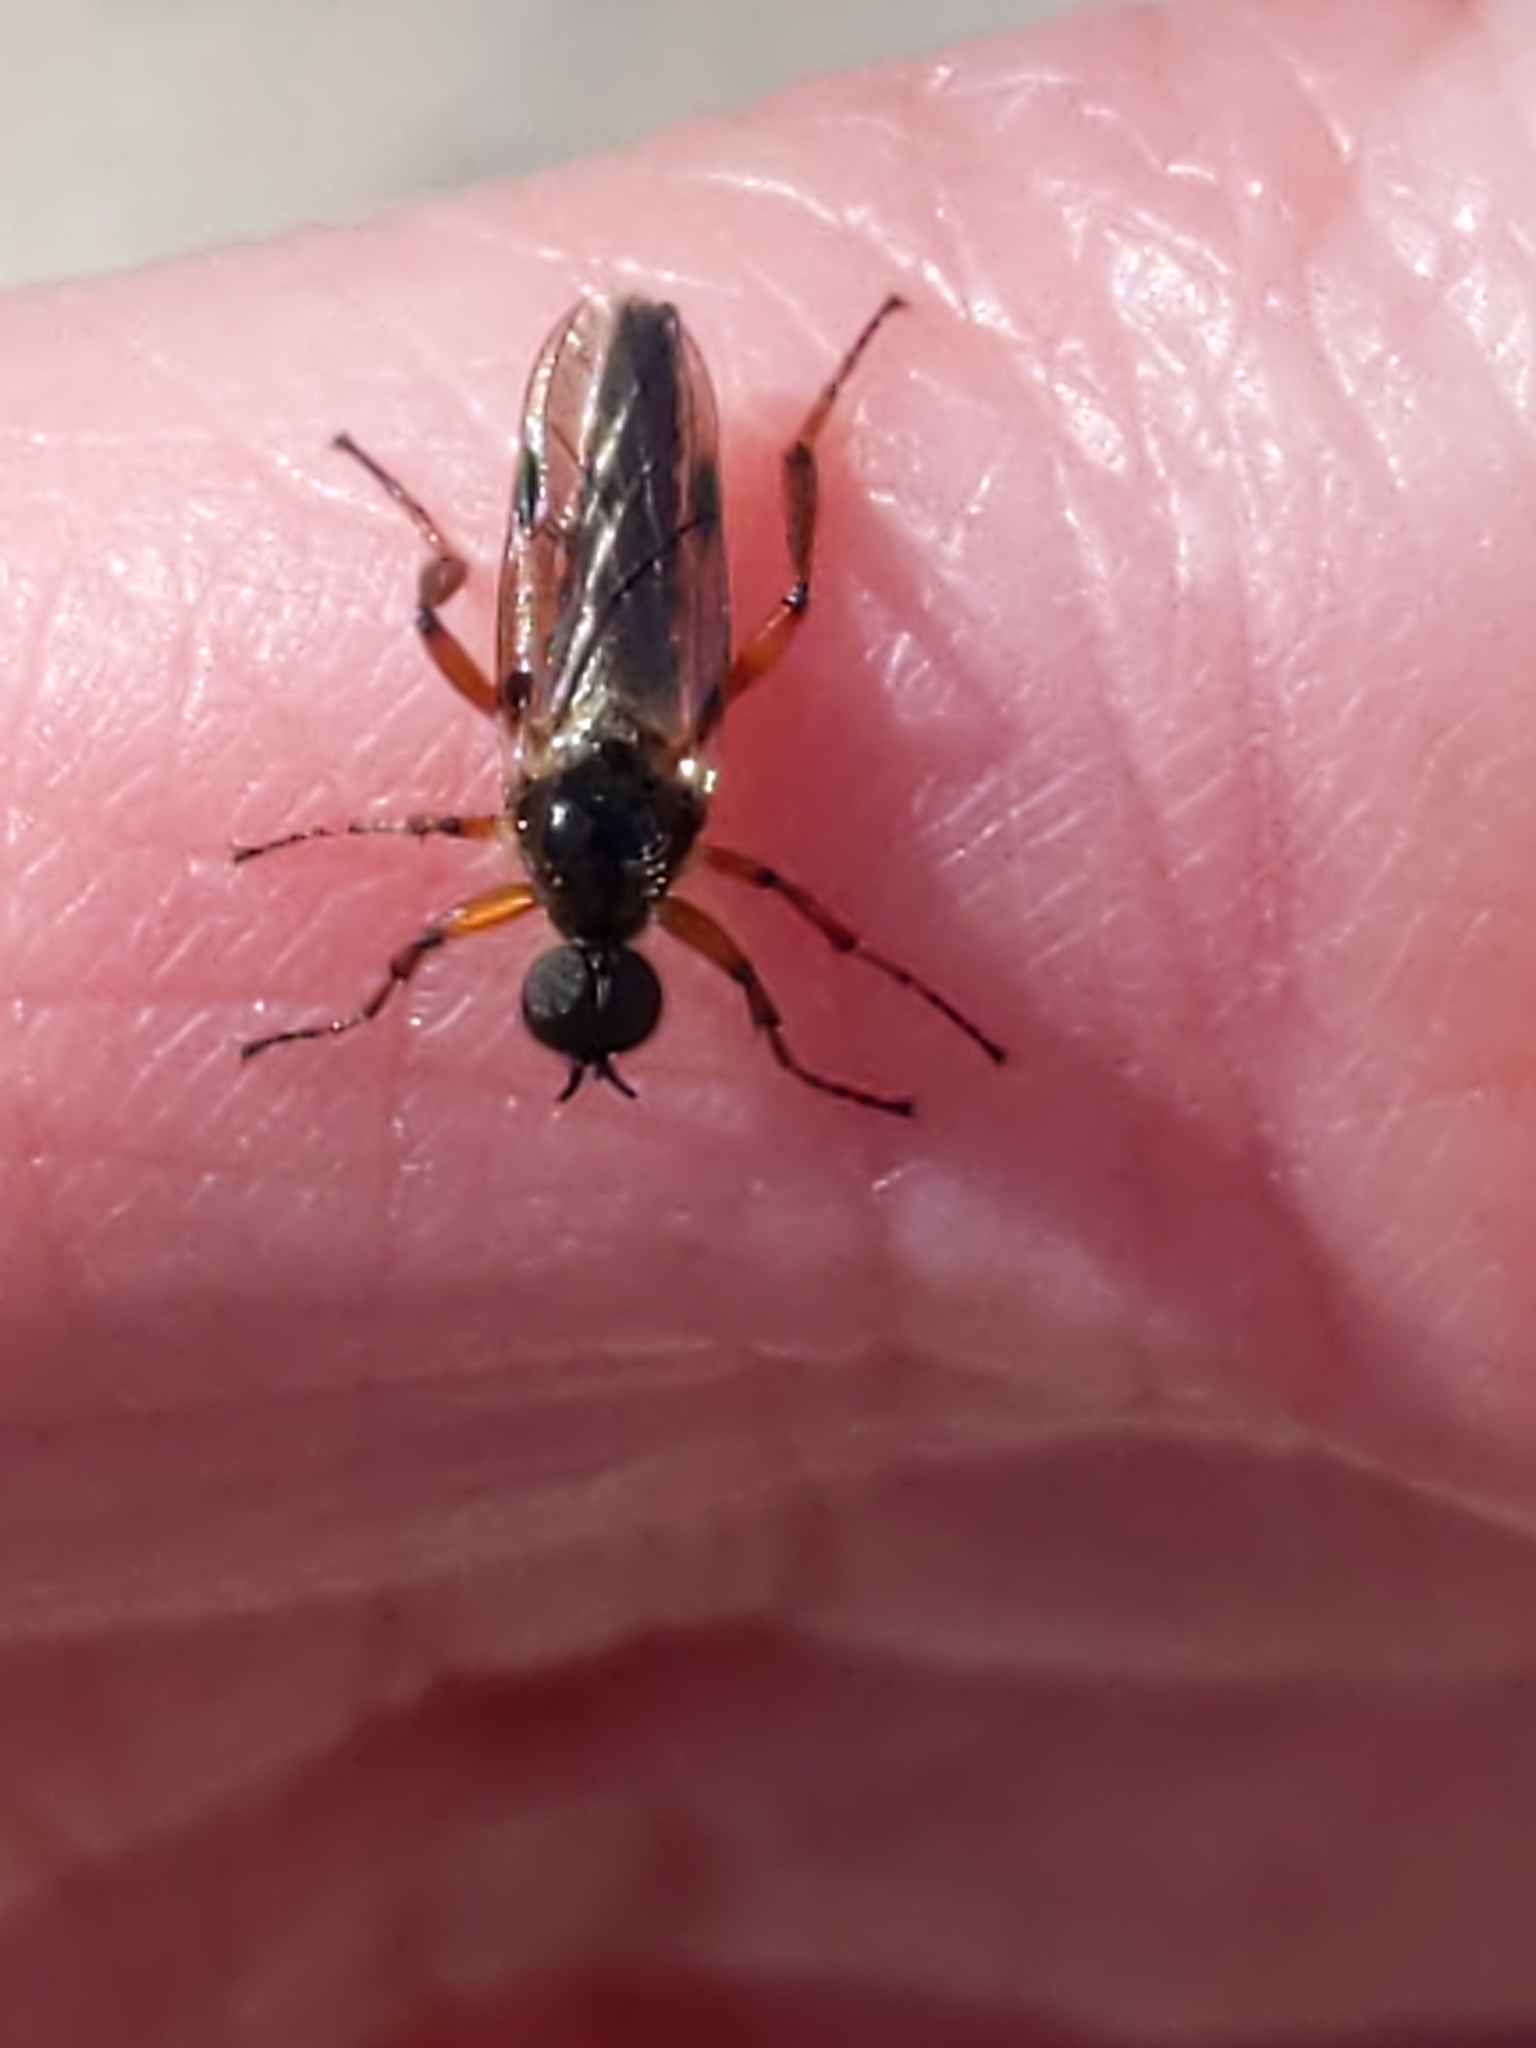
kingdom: Animalia
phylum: Arthropoda
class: Insecta
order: Diptera
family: Bibionidae
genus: Bibio
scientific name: Bibio
